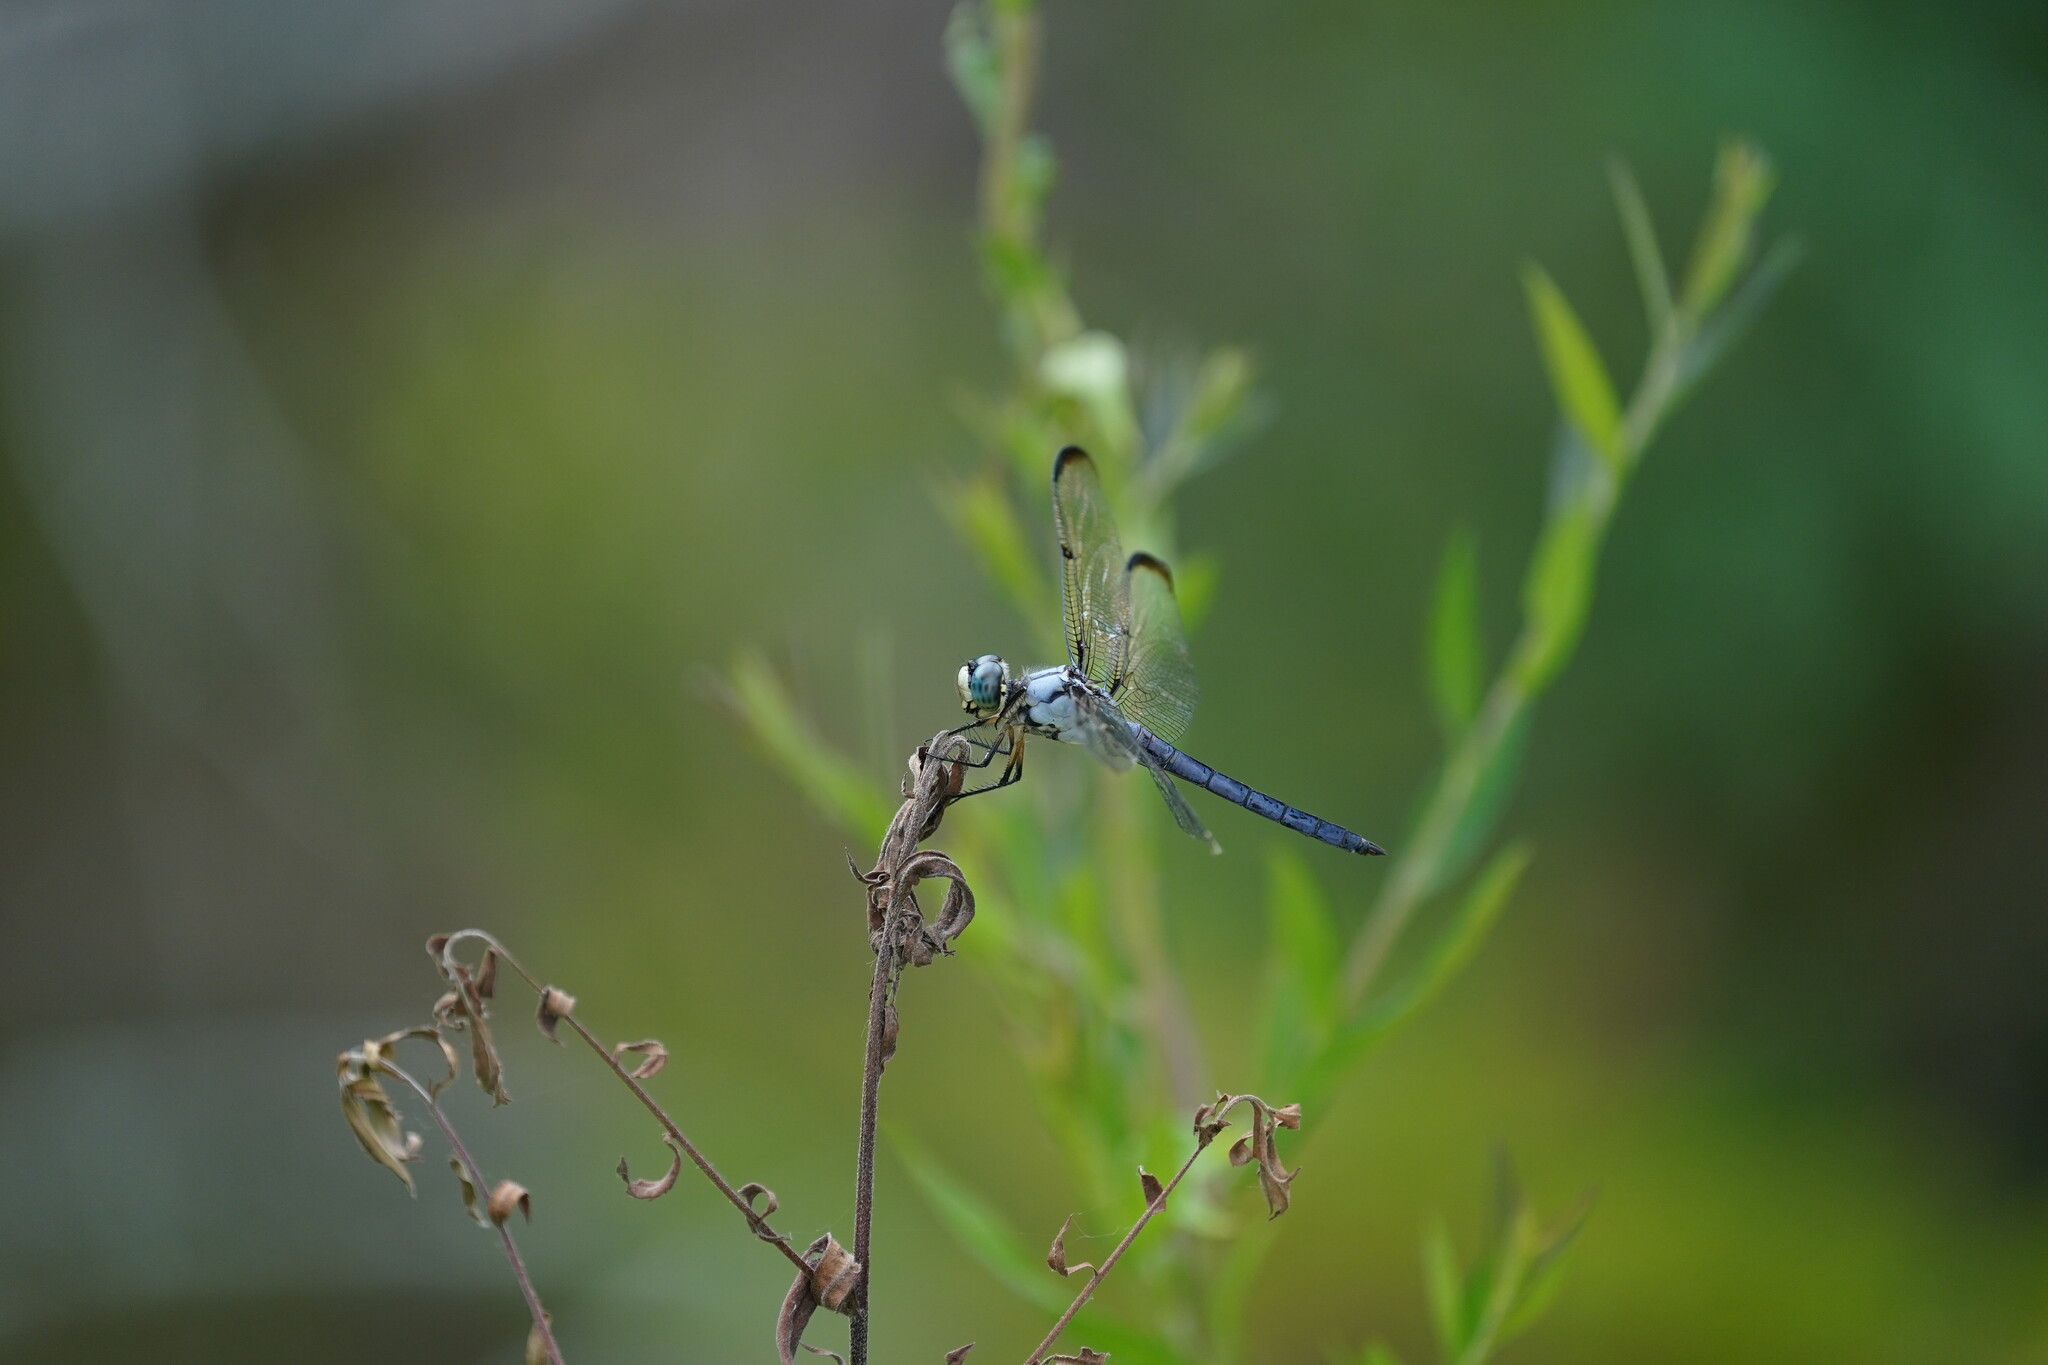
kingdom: Animalia
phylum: Arthropoda
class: Insecta
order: Odonata
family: Libellulidae
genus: Libellula
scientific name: Libellula vibrans
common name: Great blue skimmer
